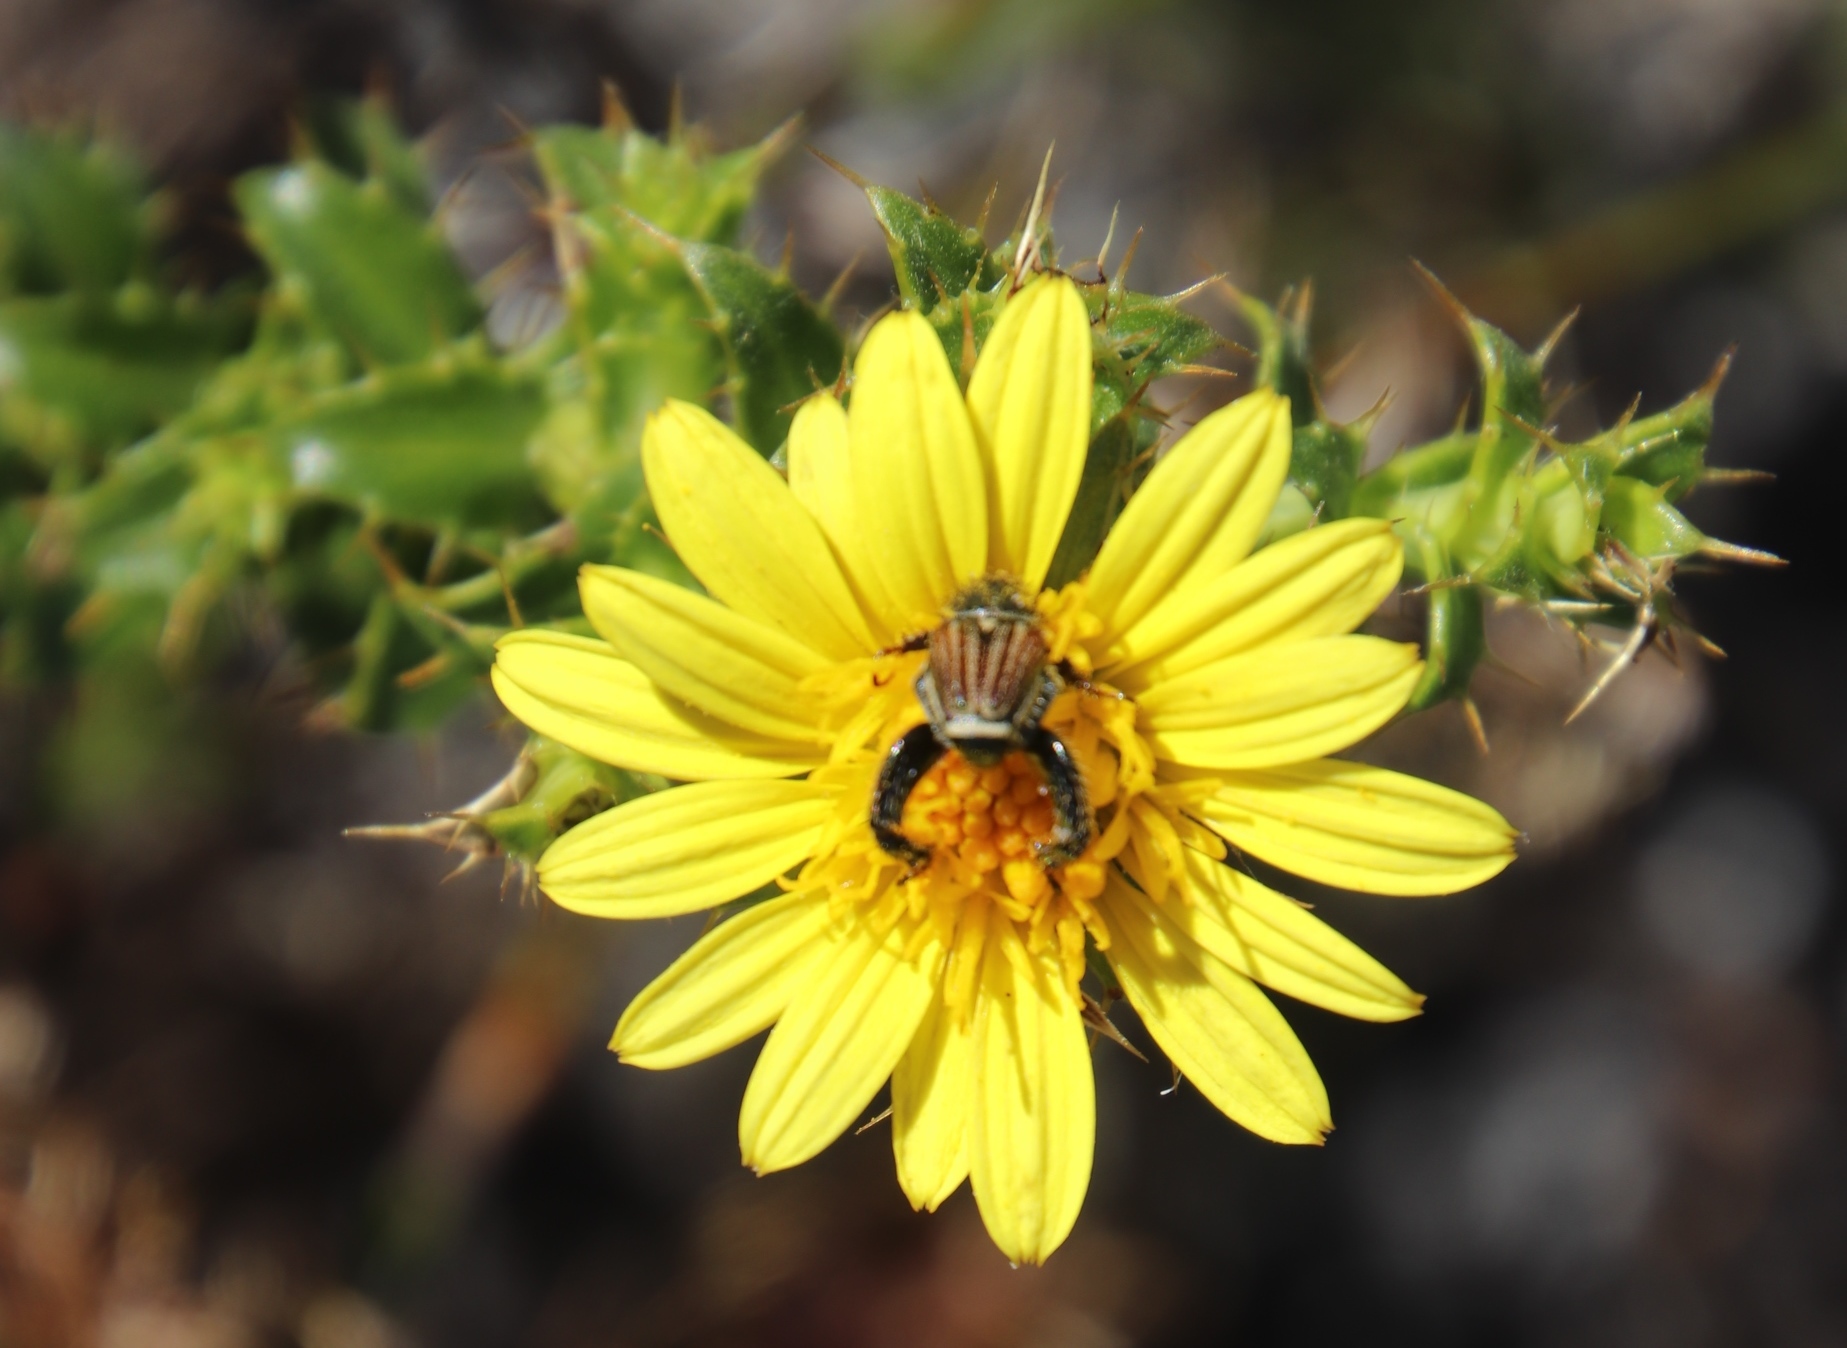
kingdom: Plantae
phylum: Tracheophyta
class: Magnoliopsida
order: Asterales
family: Asteraceae
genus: Cullumia
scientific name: Cullumia setosa
